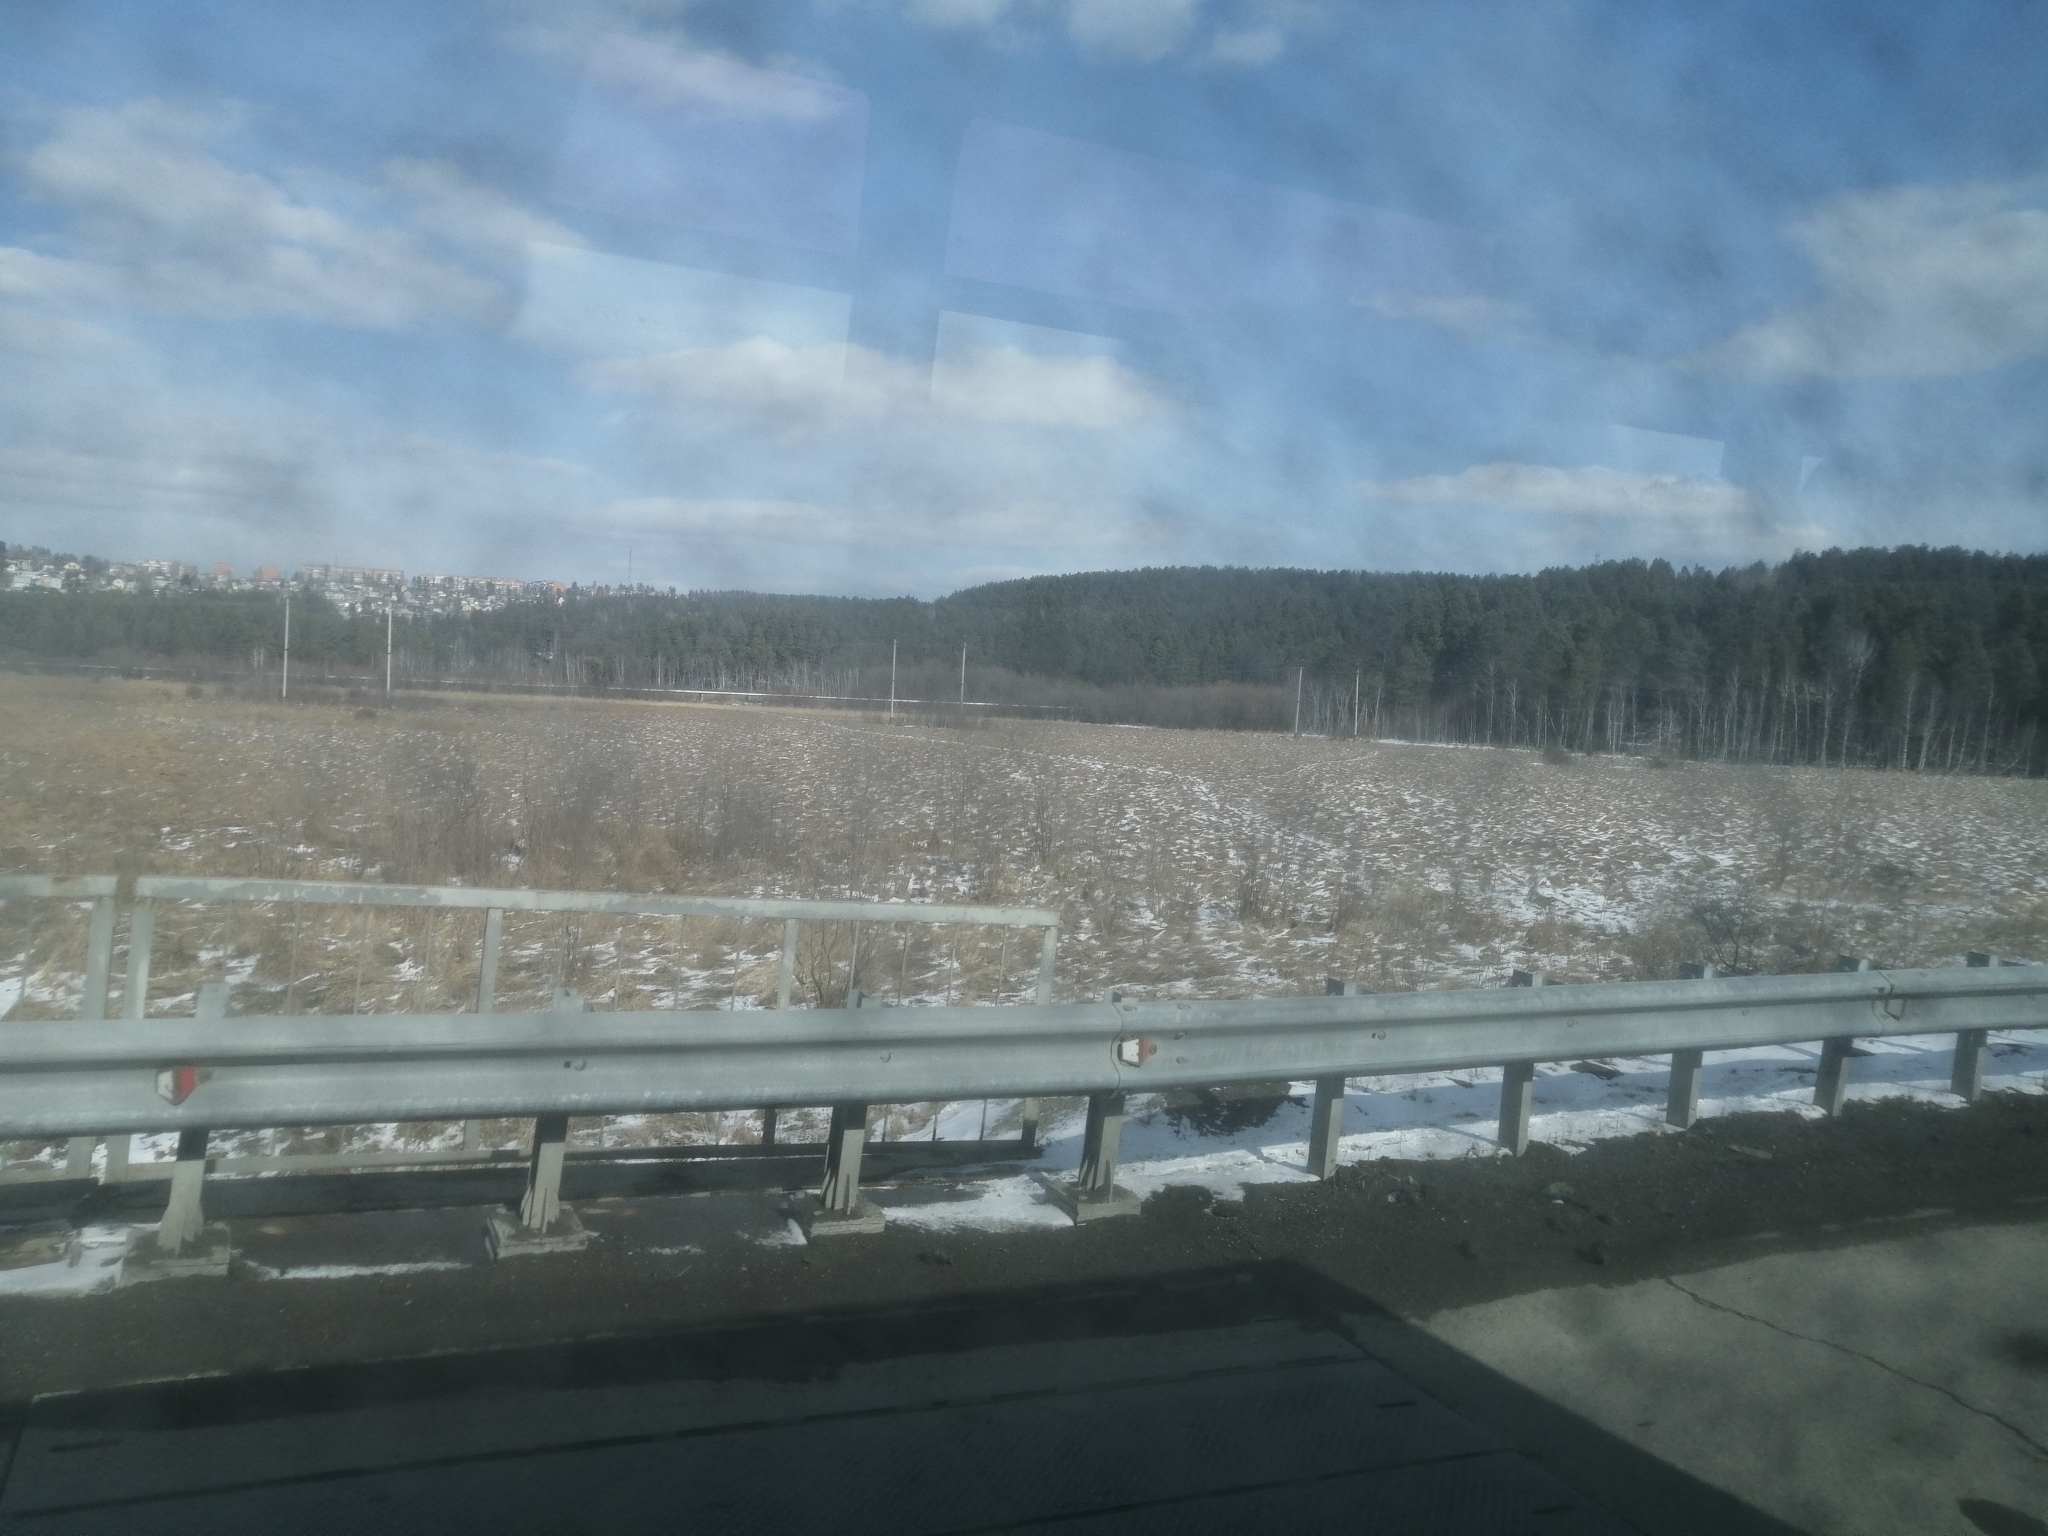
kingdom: Plantae
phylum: Tracheophyta
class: Pinopsida
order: Pinales
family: Pinaceae
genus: Pinus
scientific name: Pinus sylvestris
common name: Scots pine
